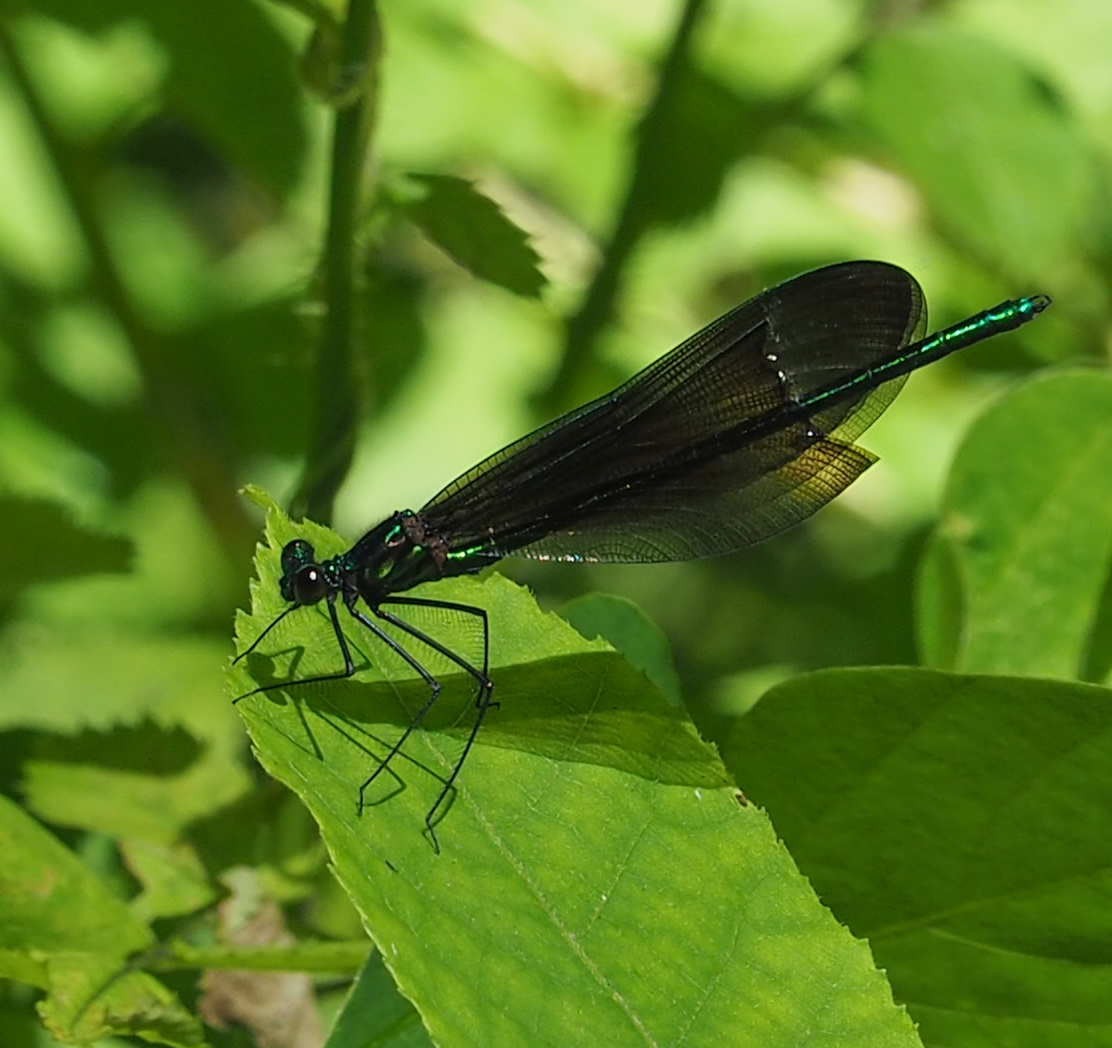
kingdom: Animalia
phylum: Arthropoda
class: Insecta
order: Odonata
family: Calopterygidae
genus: Calopteryx
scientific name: Calopteryx maculata
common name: Ebony jewelwing
